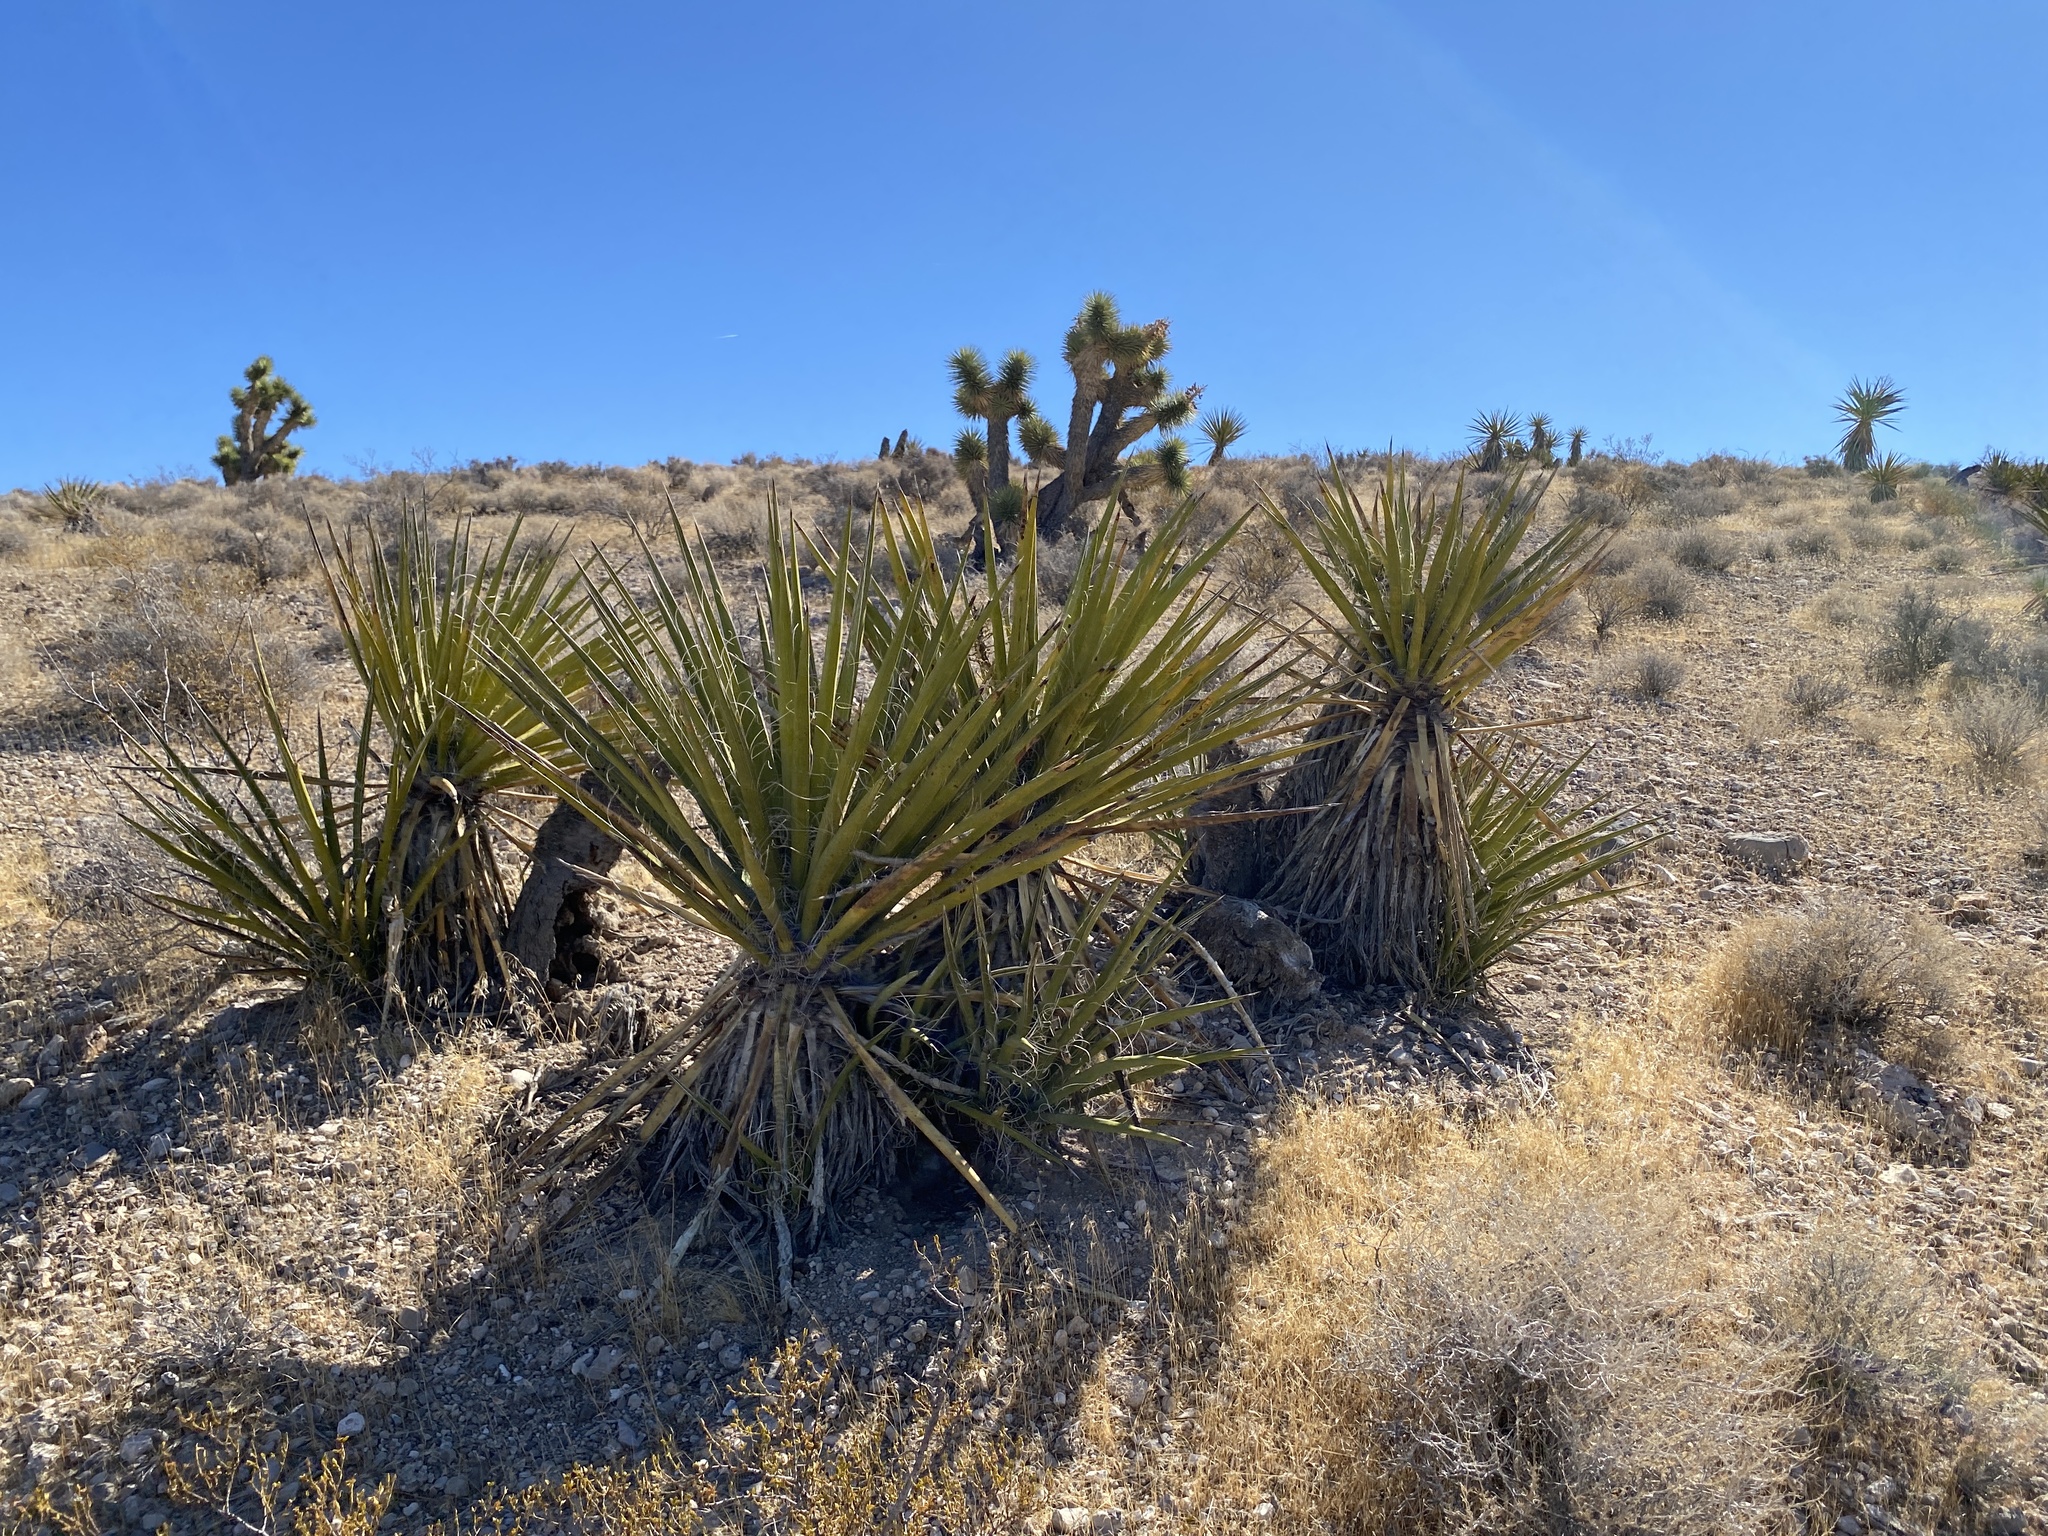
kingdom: Plantae
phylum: Tracheophyta
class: Liliopsida
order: Asparagales
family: Asparagaceae
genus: Yucca
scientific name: Yucca schidigera
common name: Mojave yucca
